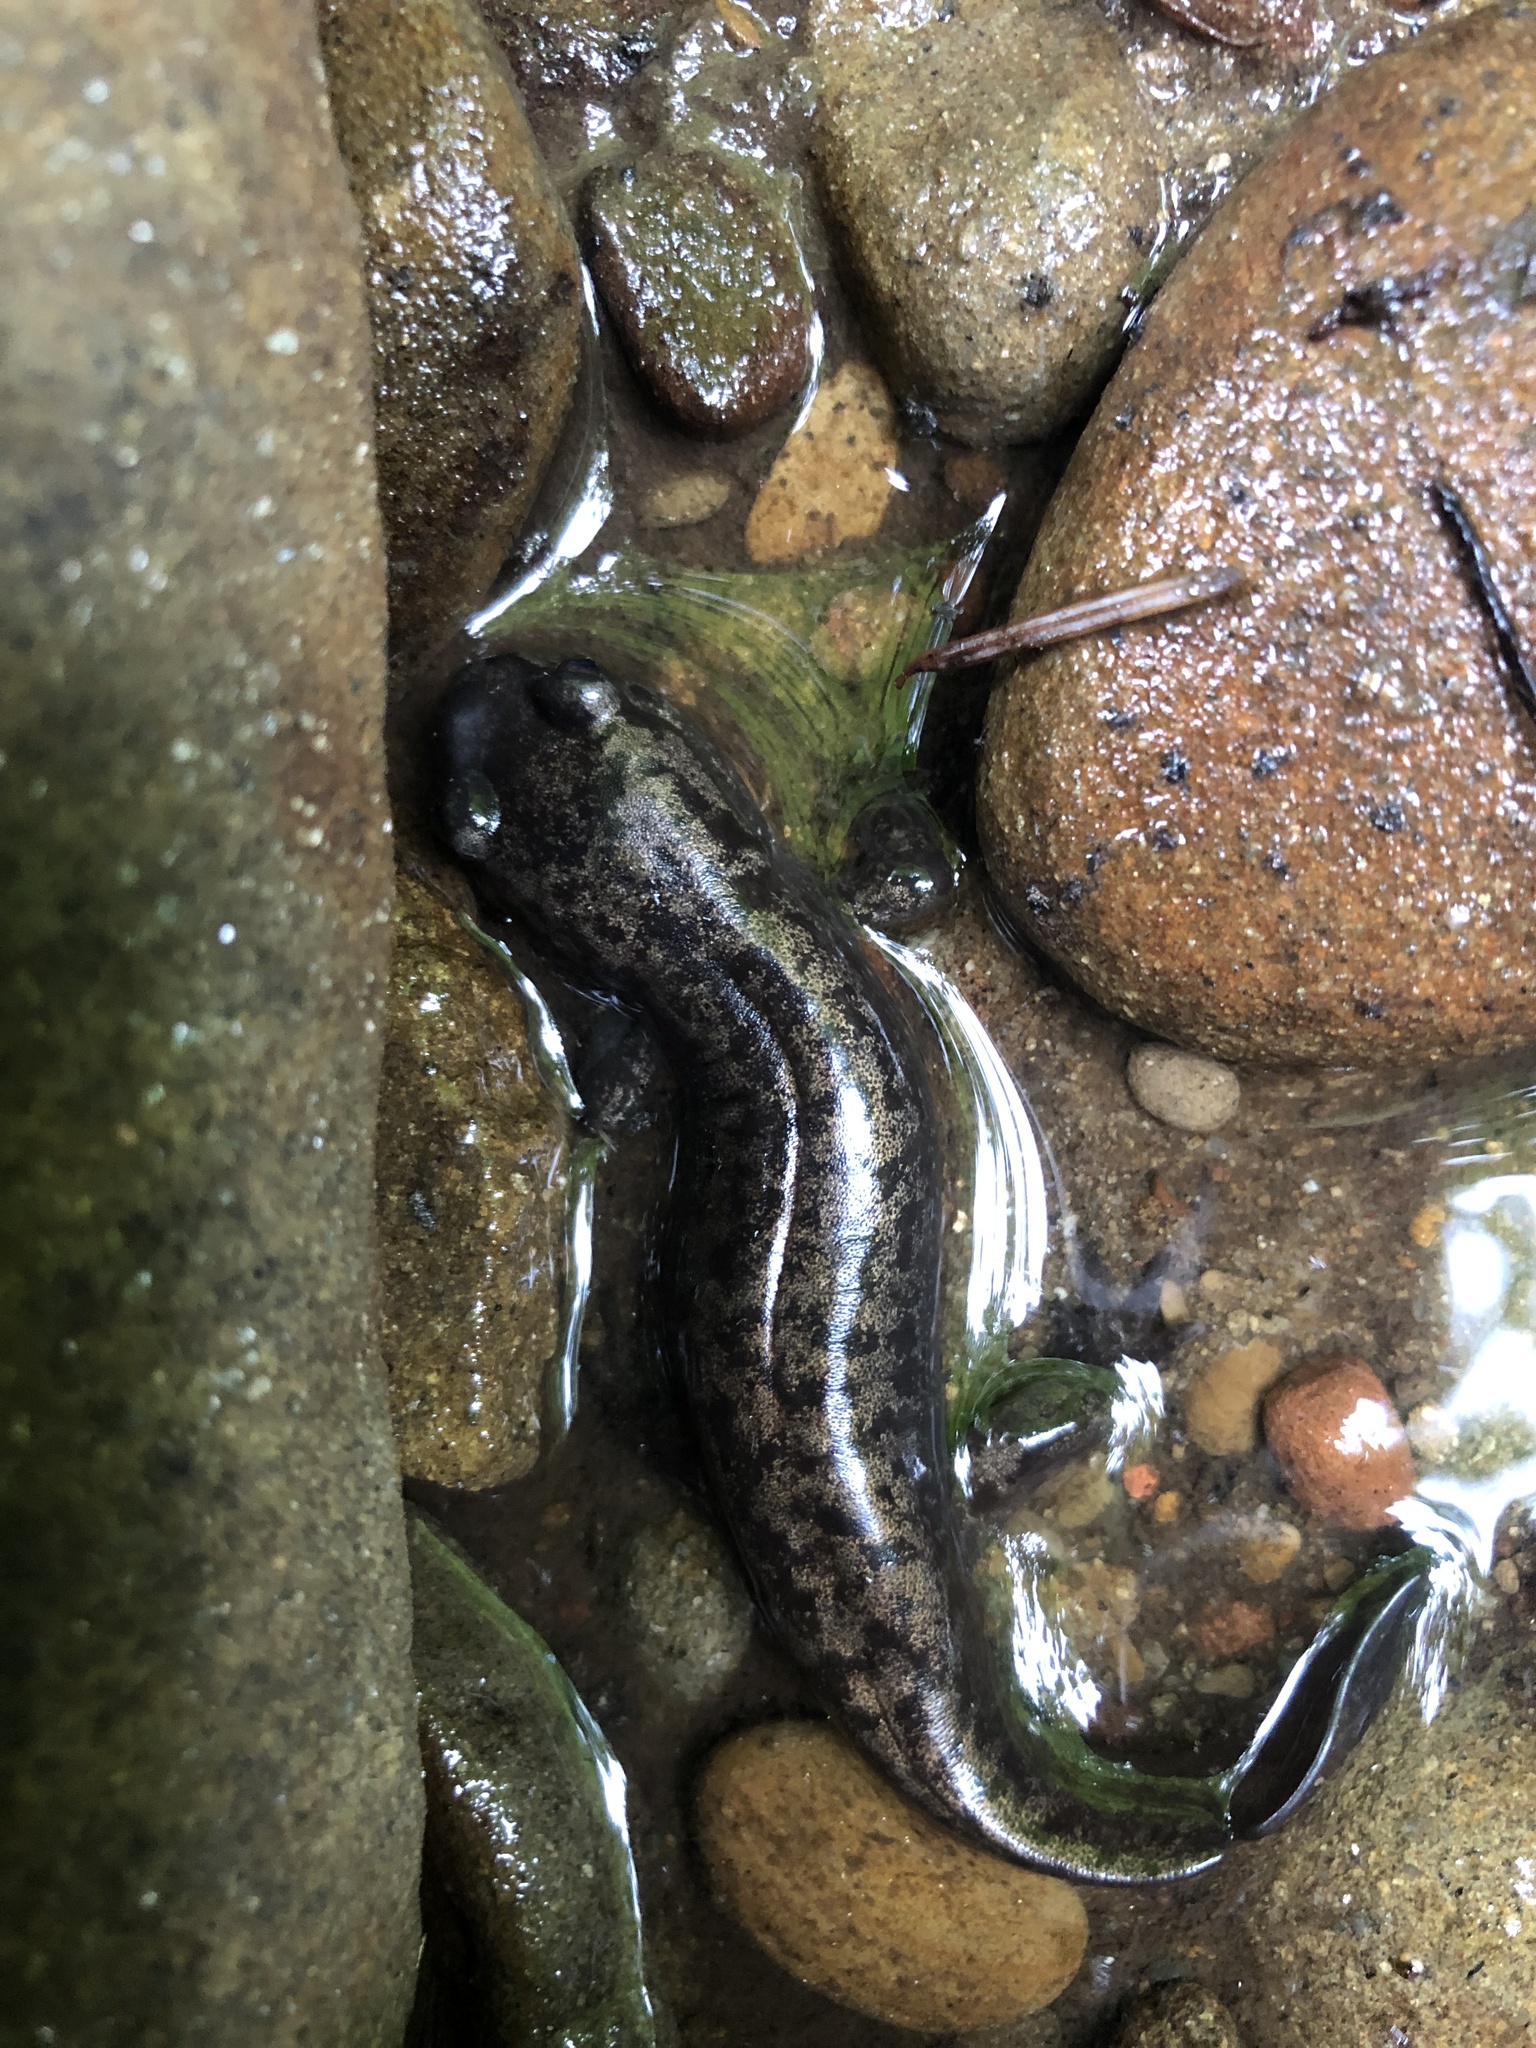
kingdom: Animalia
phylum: Chordata
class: Amphibia
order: Caudata
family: Ambystomatidae
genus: Dicamptodon
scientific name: Dicamptodon tenebrosus
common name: Coastal giant salamander
